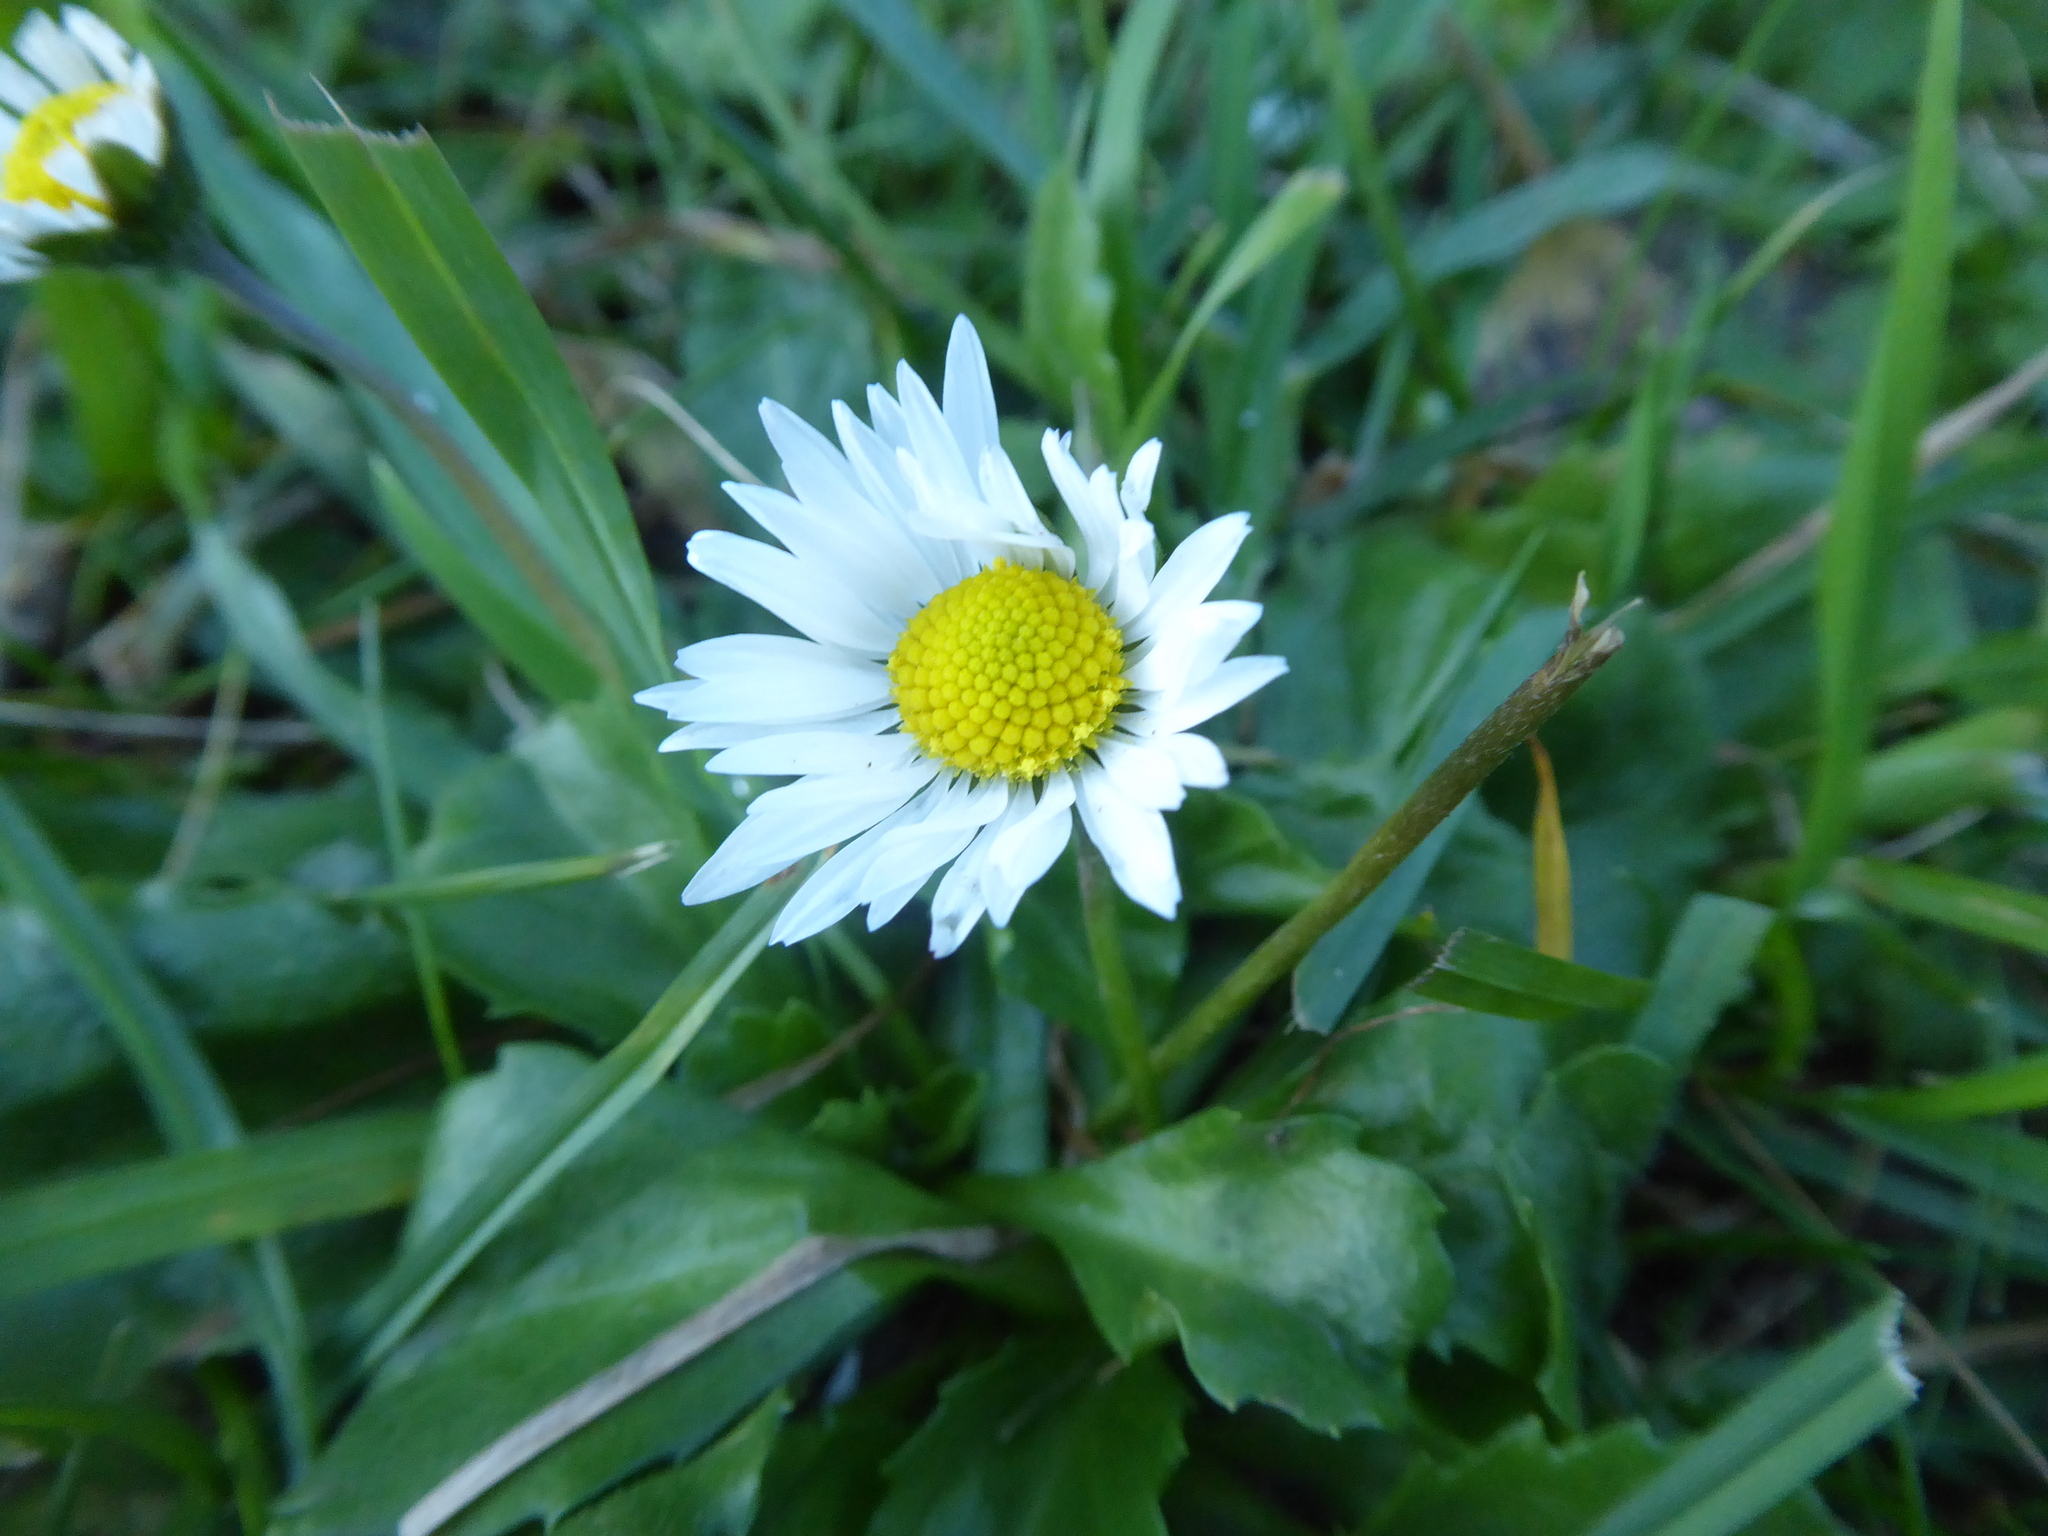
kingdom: Plantae
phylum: Tracheophyta
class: Magnoliopsida
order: Asterales
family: Asteraceae
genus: Bellis
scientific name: Bellis perennis
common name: Lawndaisy
